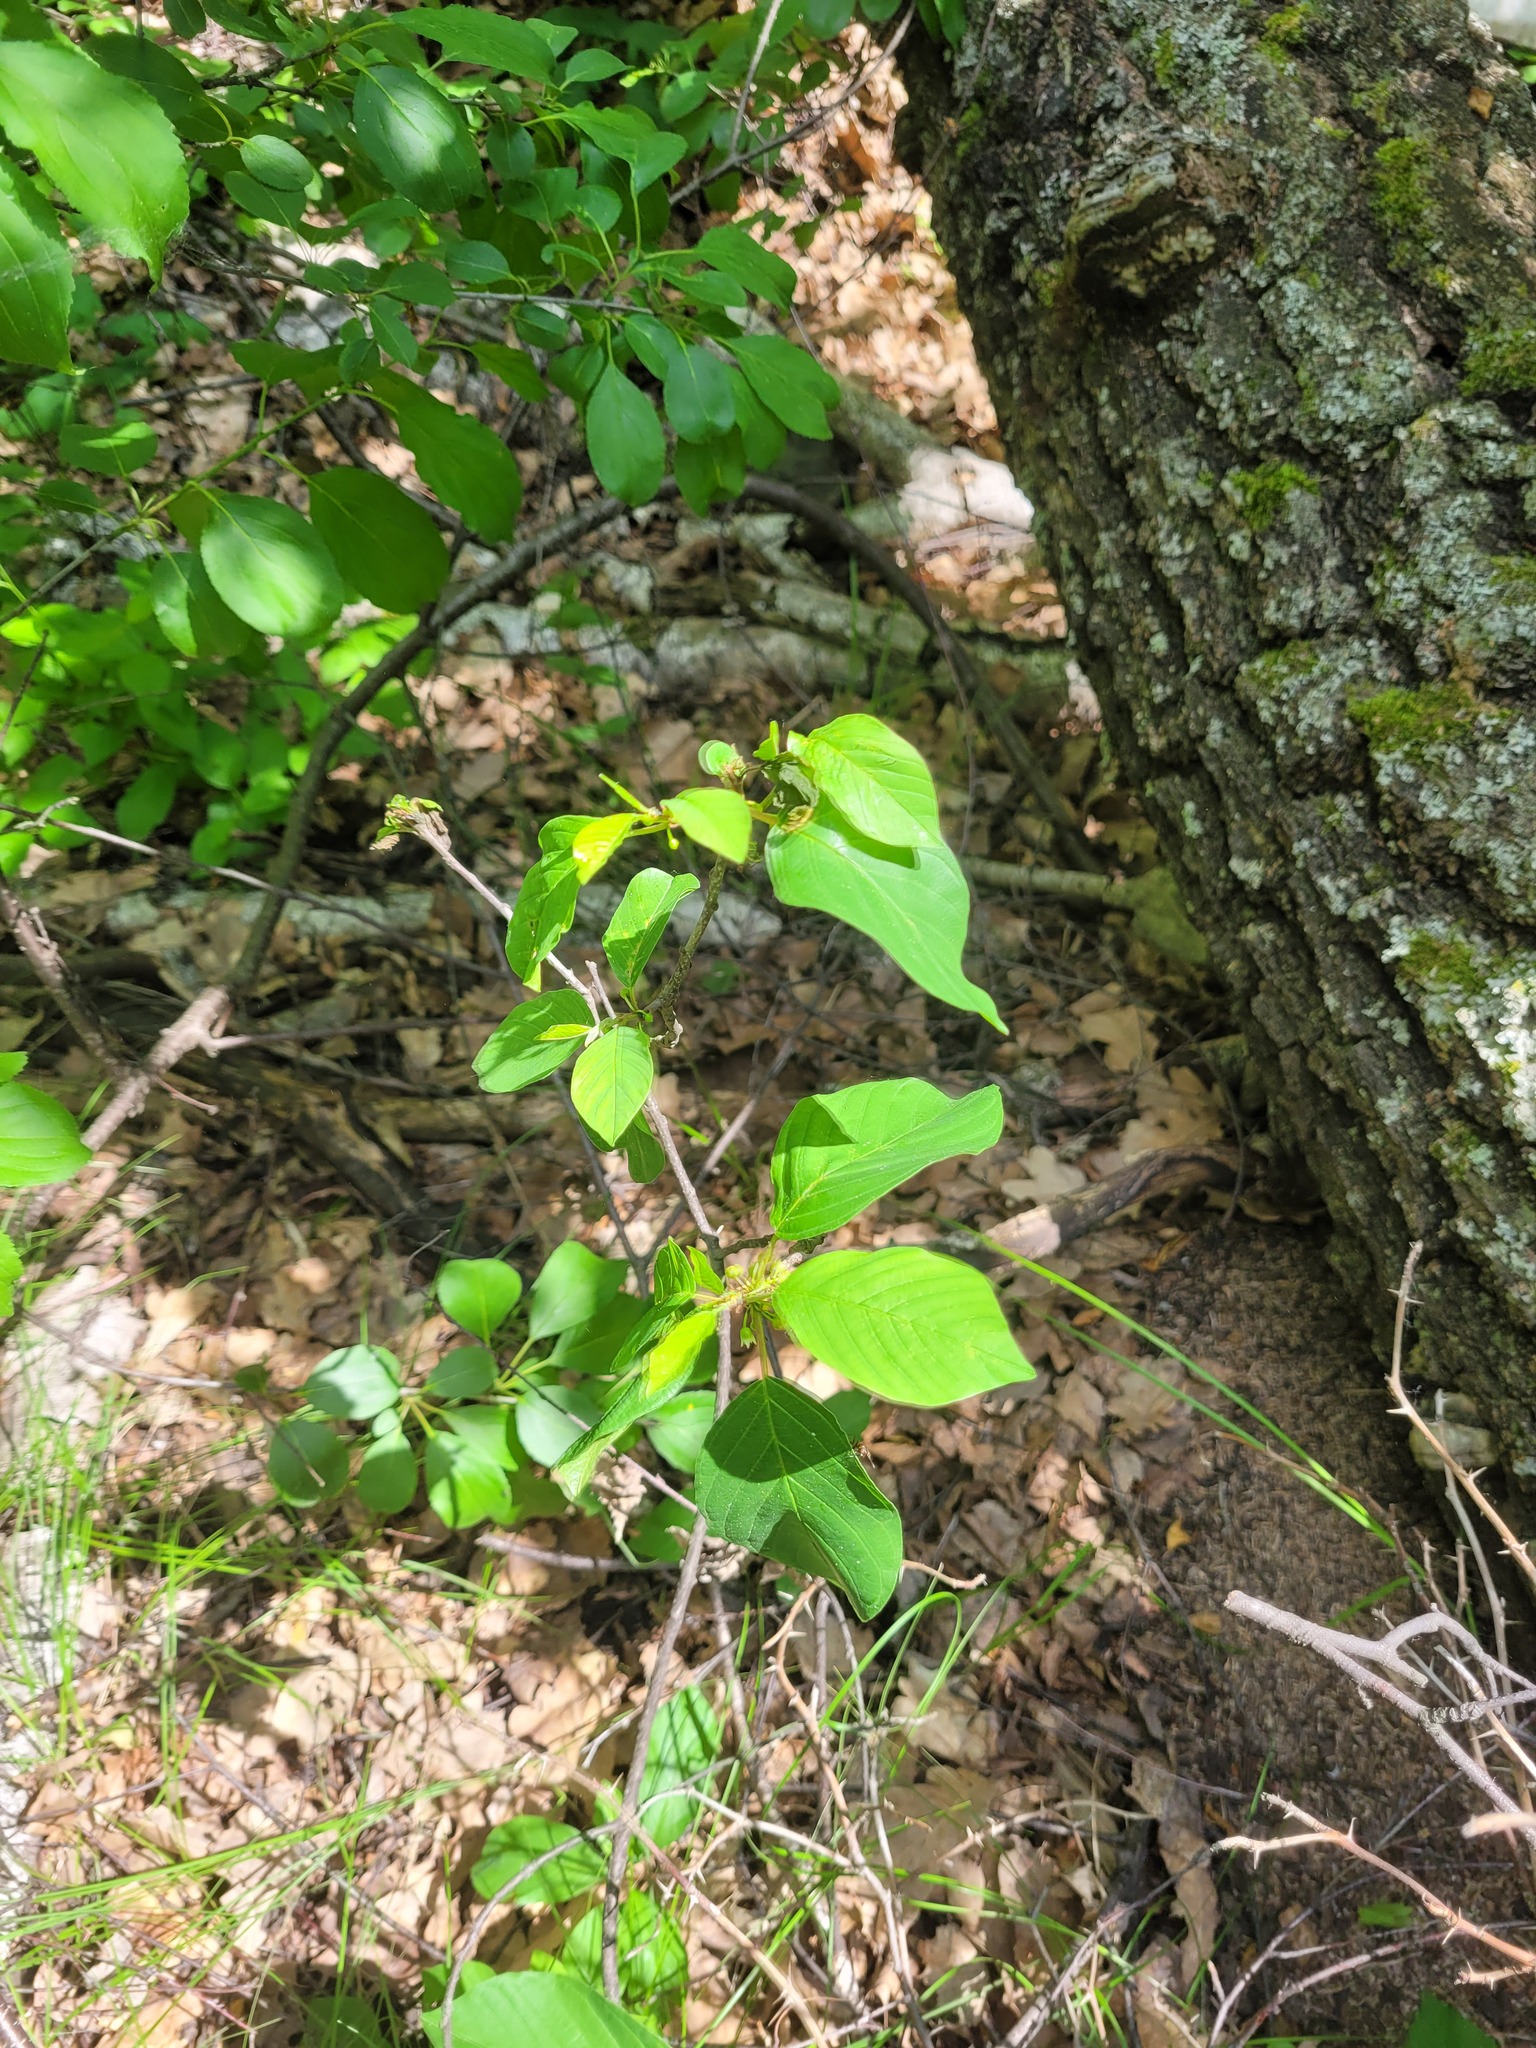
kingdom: Plantae
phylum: Tracheophyta
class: Magnoliopsida
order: Rosales
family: Rhamnaceae
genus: Frangula
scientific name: Frangula alnus
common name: Alder buckthorn
